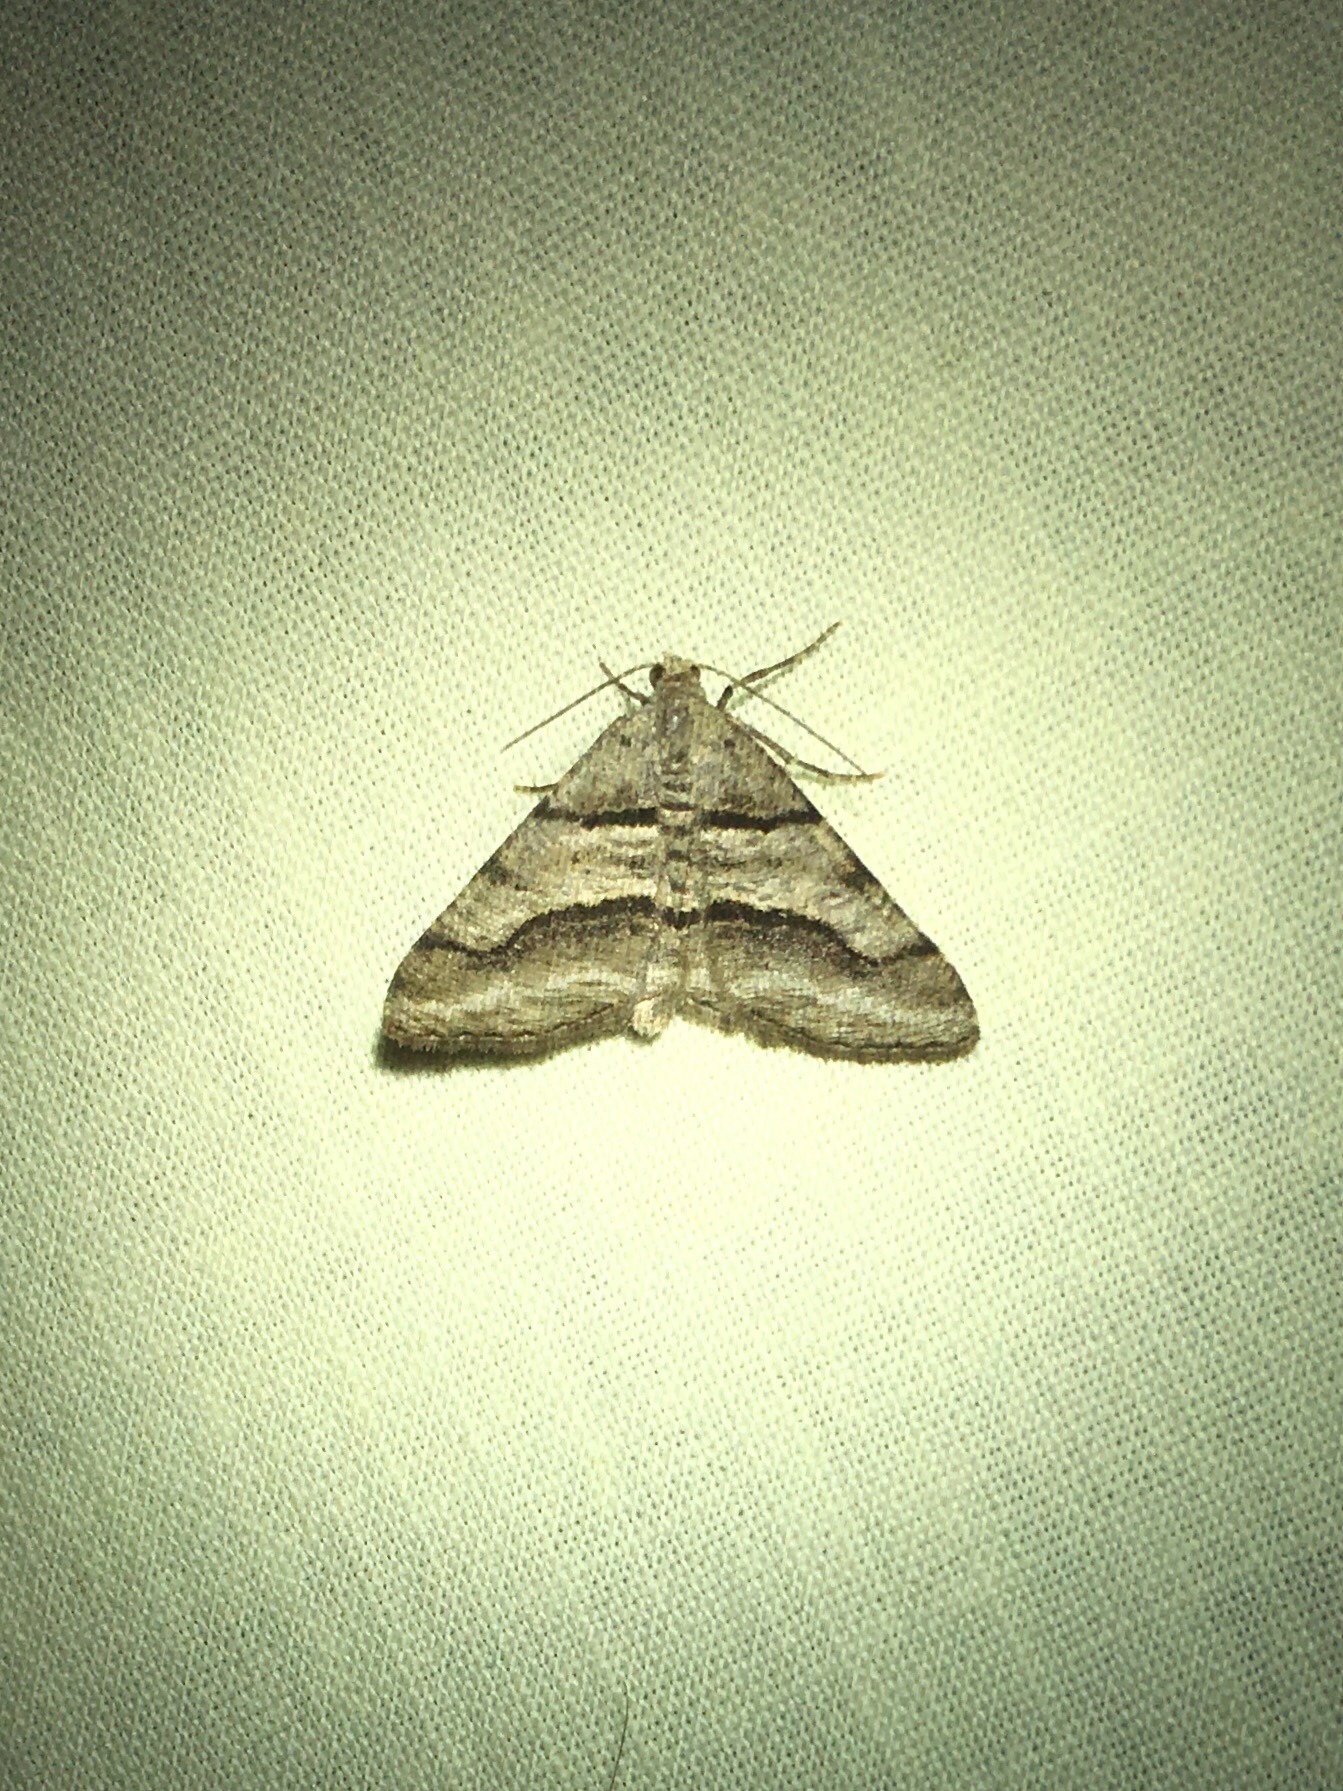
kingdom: Animalia
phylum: Arthropoda
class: Insecta
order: Lepidoptera
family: Geometridae
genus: Digrammia
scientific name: Digrammia continuata
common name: Curve-lined angle
